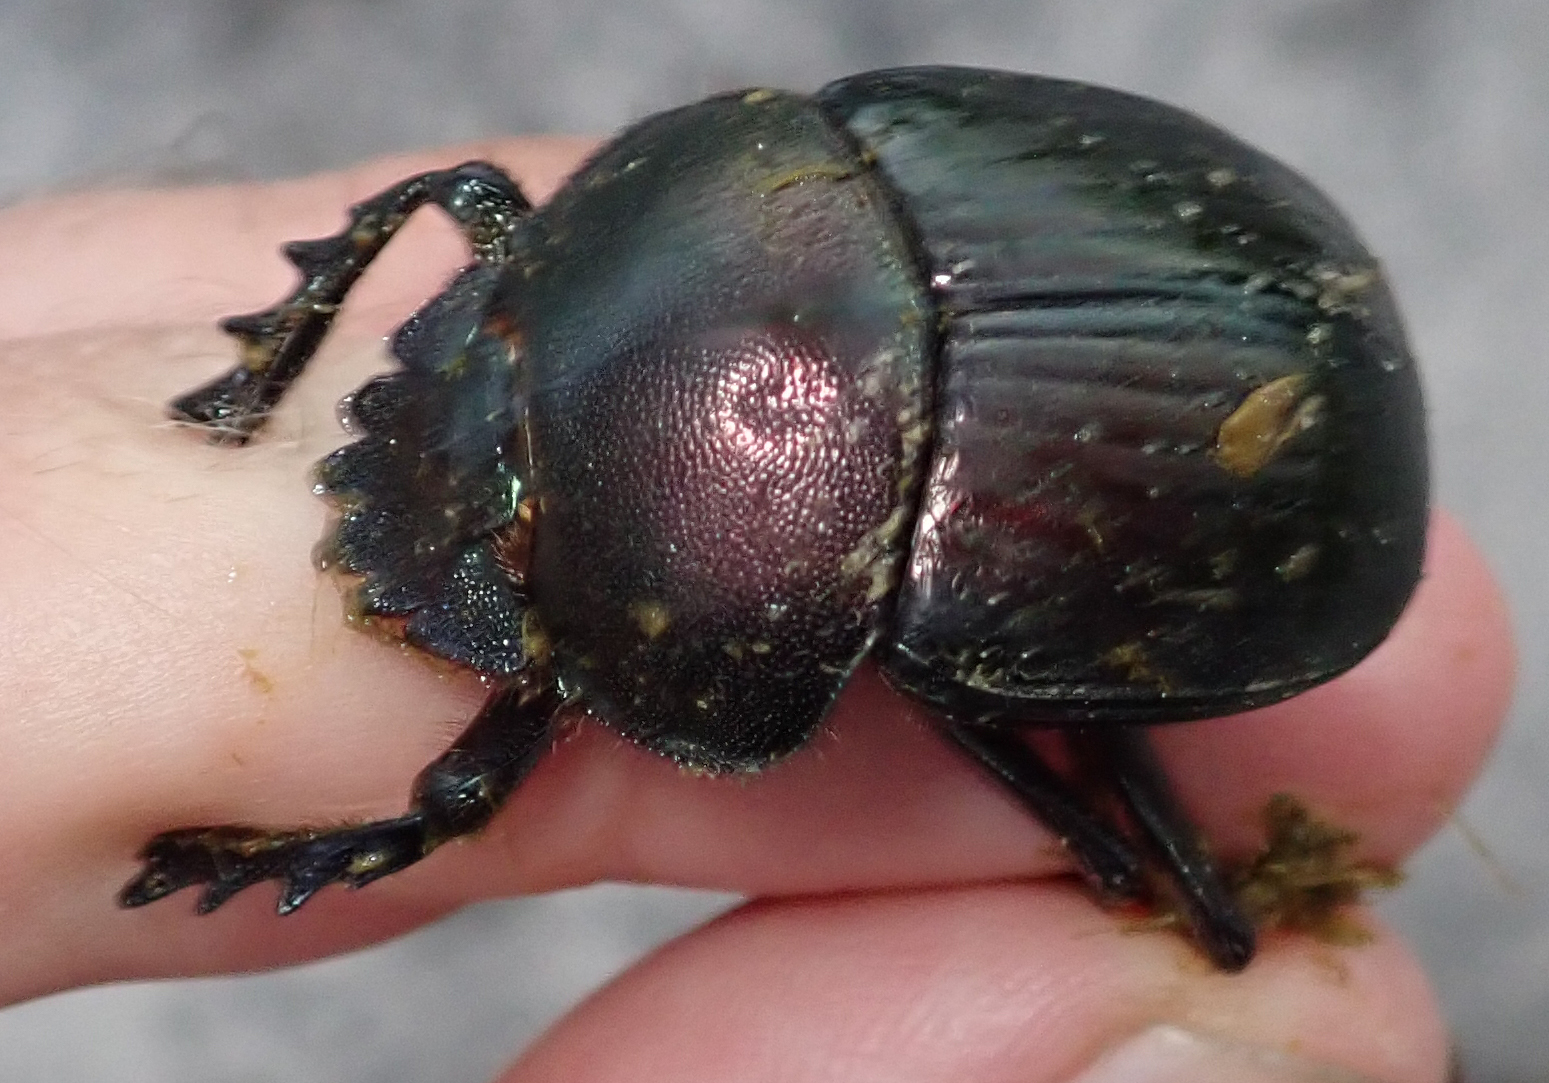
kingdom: Animalia
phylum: Arthropoda
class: Insecta
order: Coleoptera
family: Scarabaeidae
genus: Kheper
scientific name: Kheper cupreus
